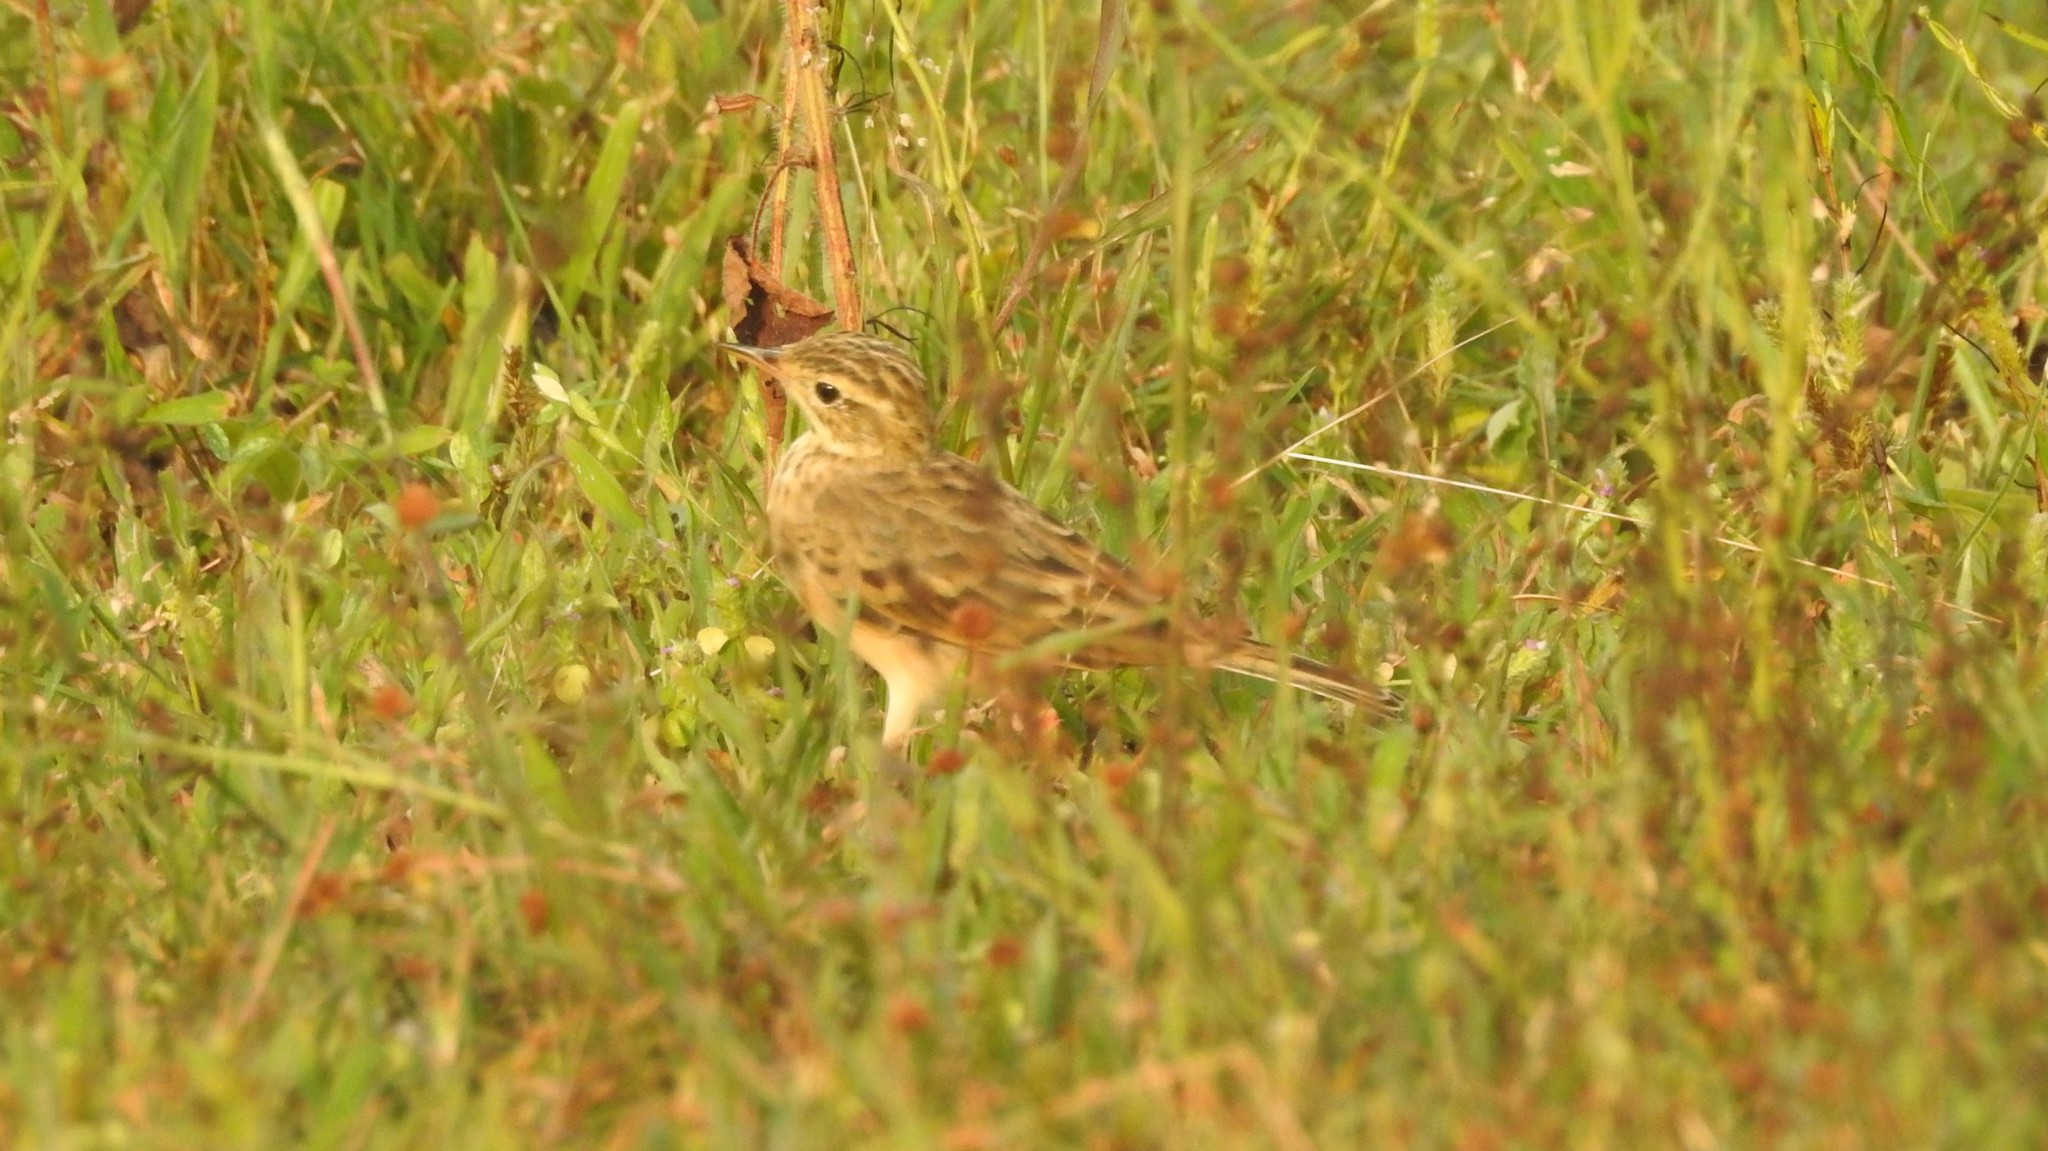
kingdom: Animalia
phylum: Chordata
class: Aves
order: Passeriformes
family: Motacillidae
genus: Anthus
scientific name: Anthus rufulus
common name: Paddyfield pipit
